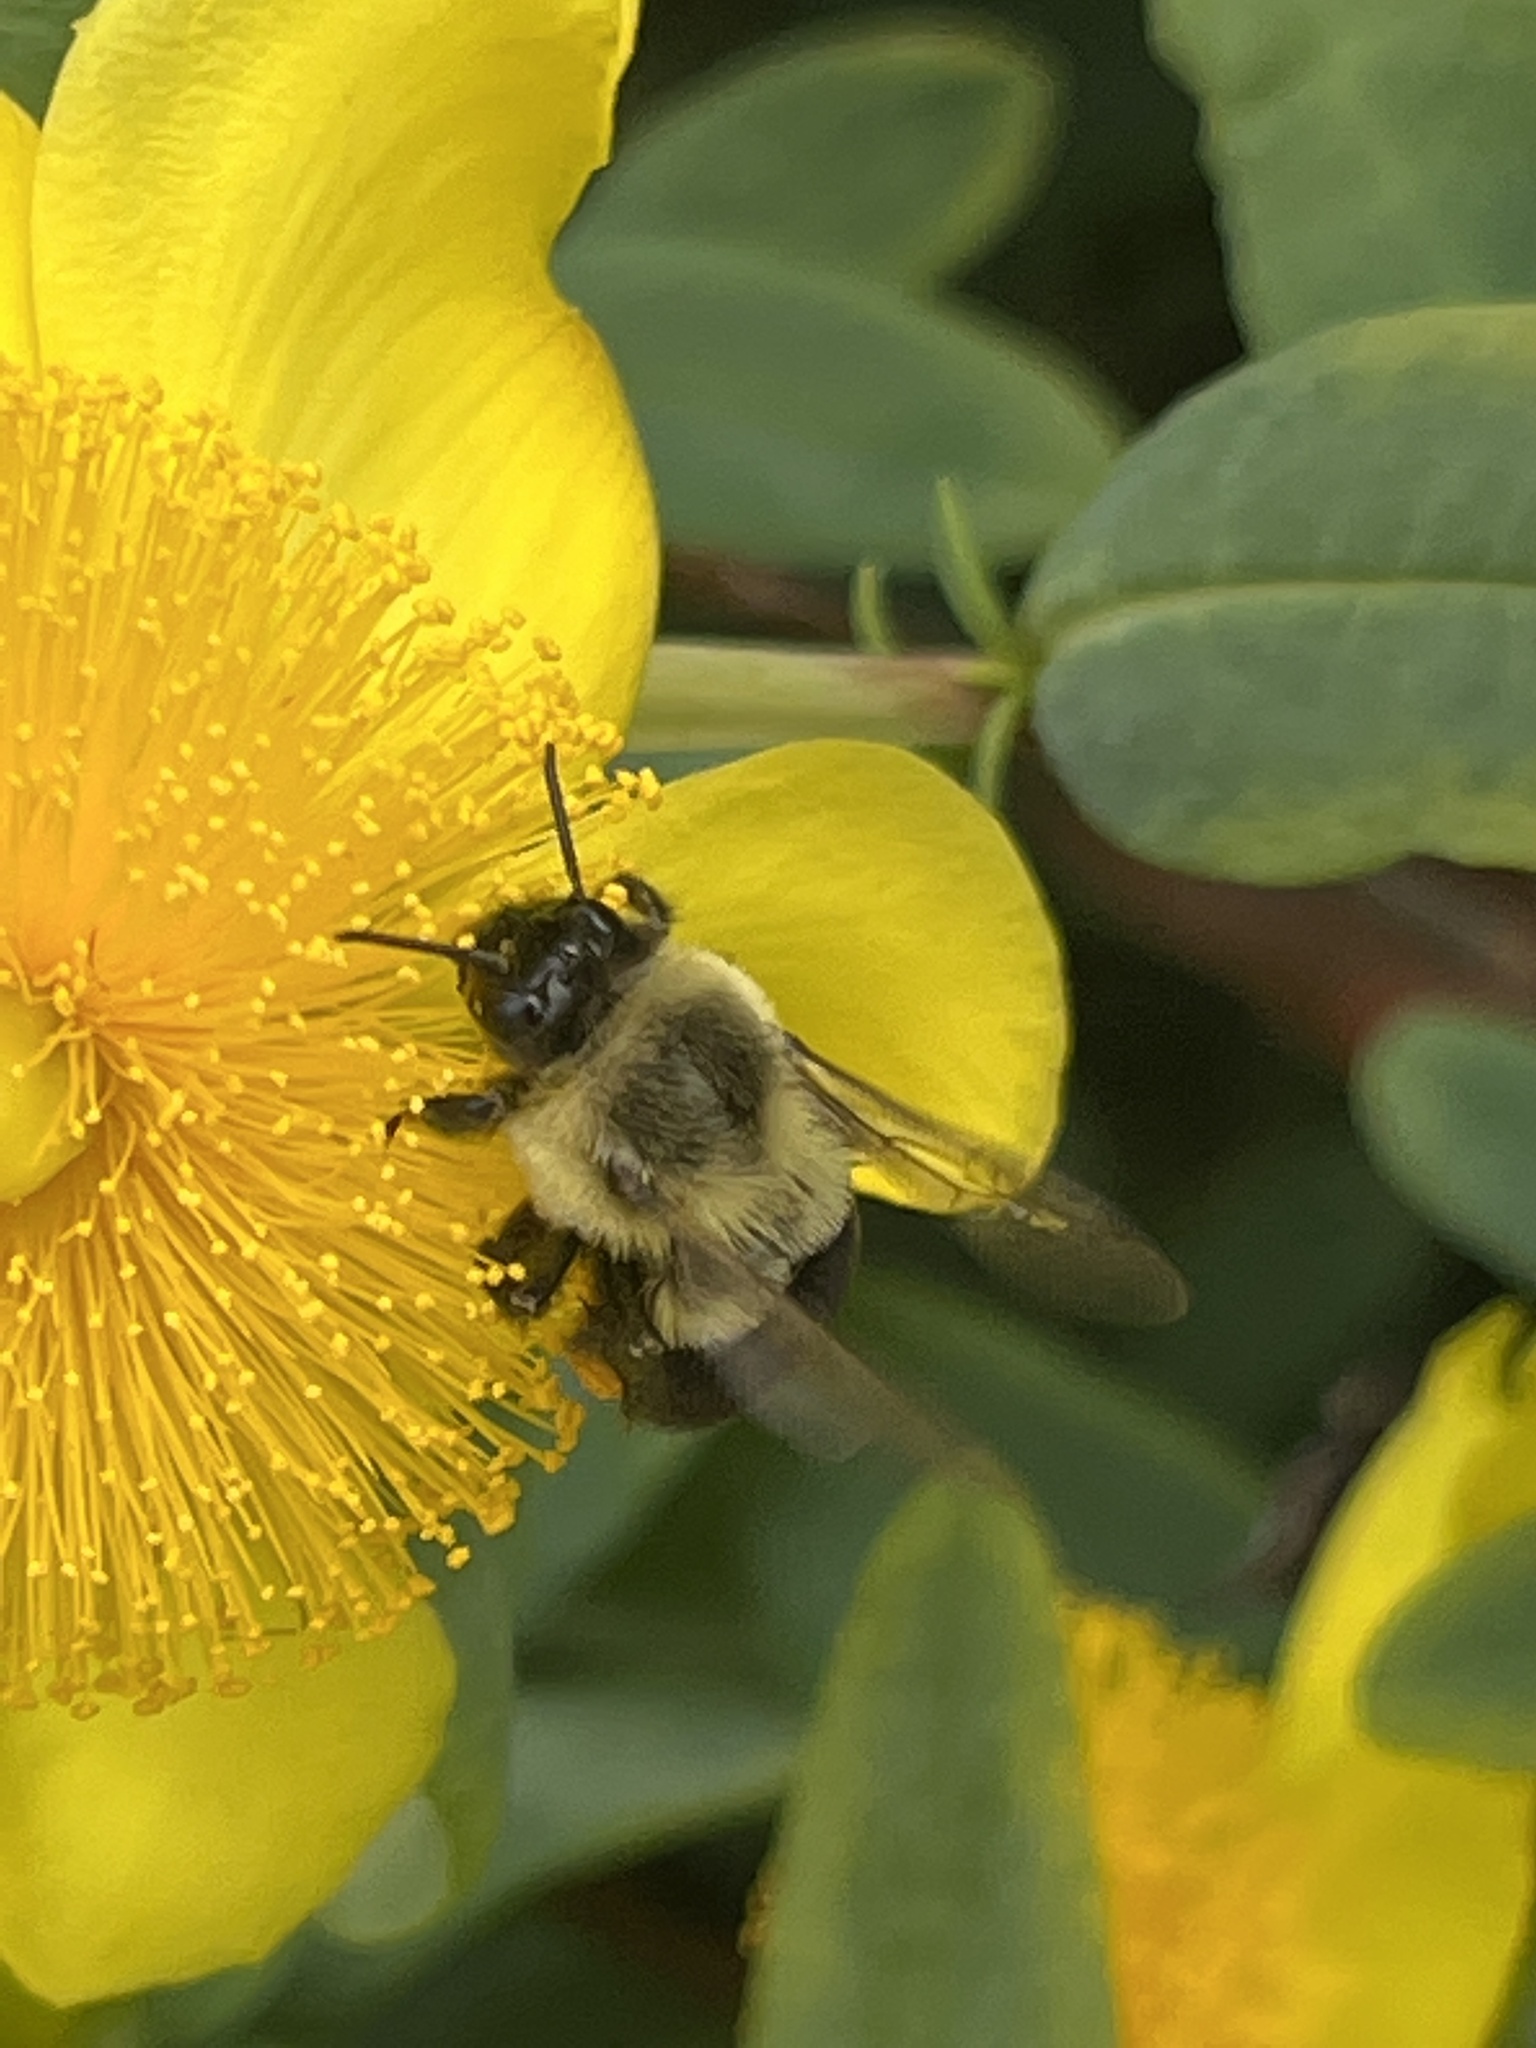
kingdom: Animalia
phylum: Arthropoda
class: Insecta
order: Hymenoptera
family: Apidae
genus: Bombus
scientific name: Bombus impatiens
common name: Common eastern bumble bee
